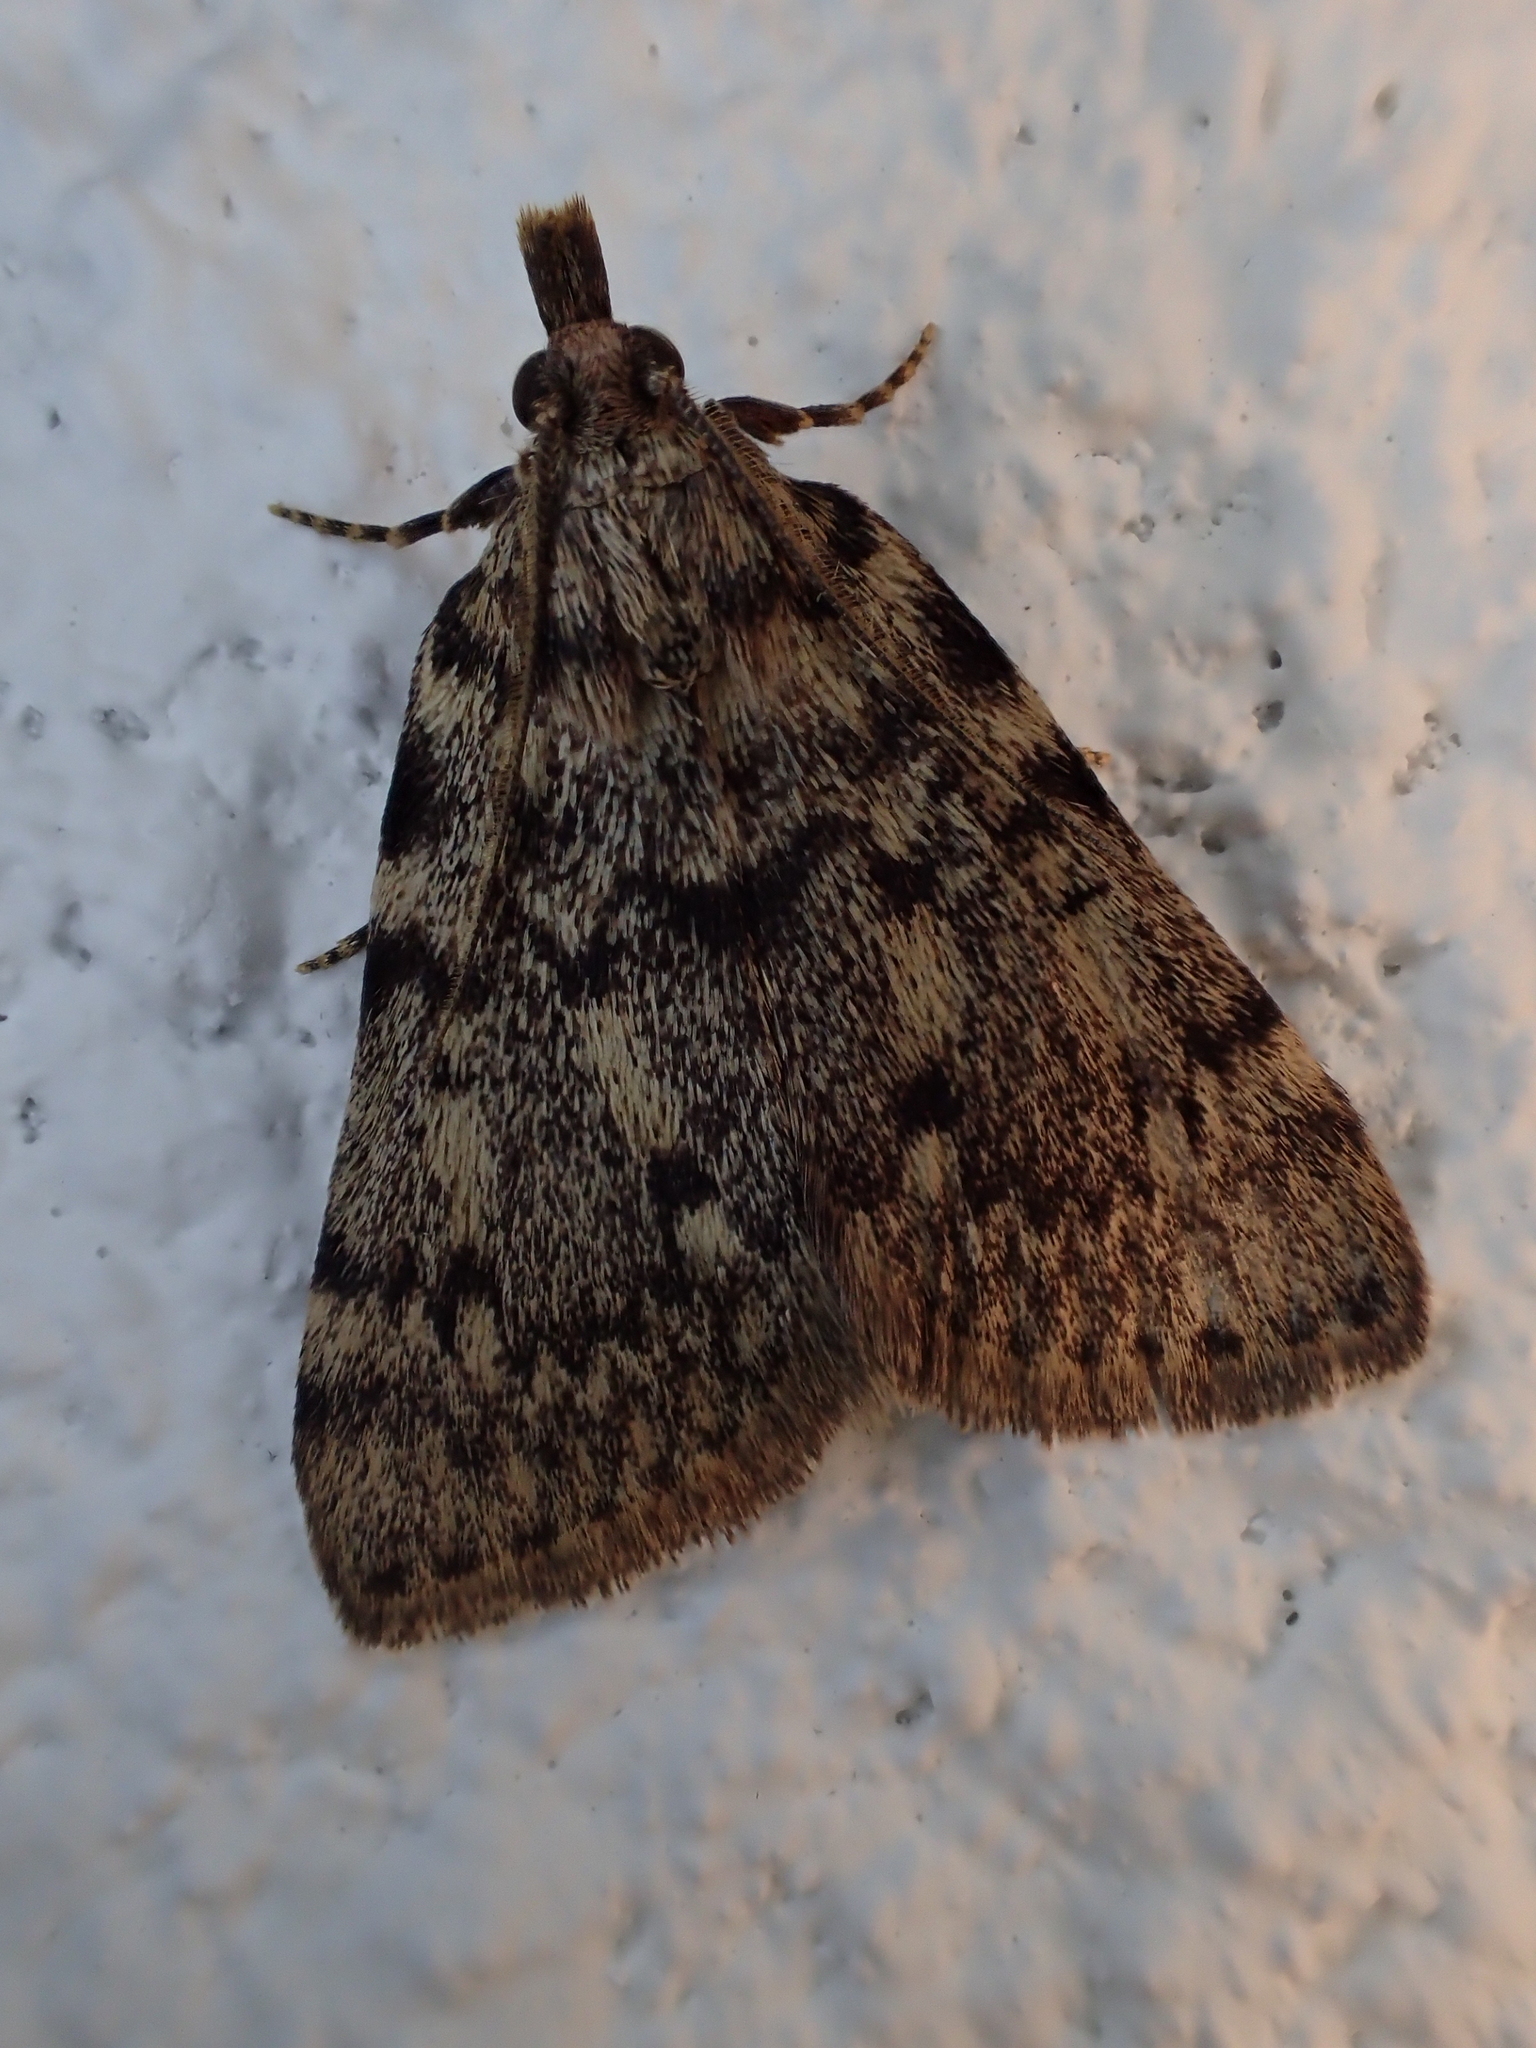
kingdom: Animalia
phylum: Arthropoda
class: Insecta
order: Lepidoptera
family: Pyralidae
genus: Aglossa
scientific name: Aglossa pinguinalis
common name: Large tabby
